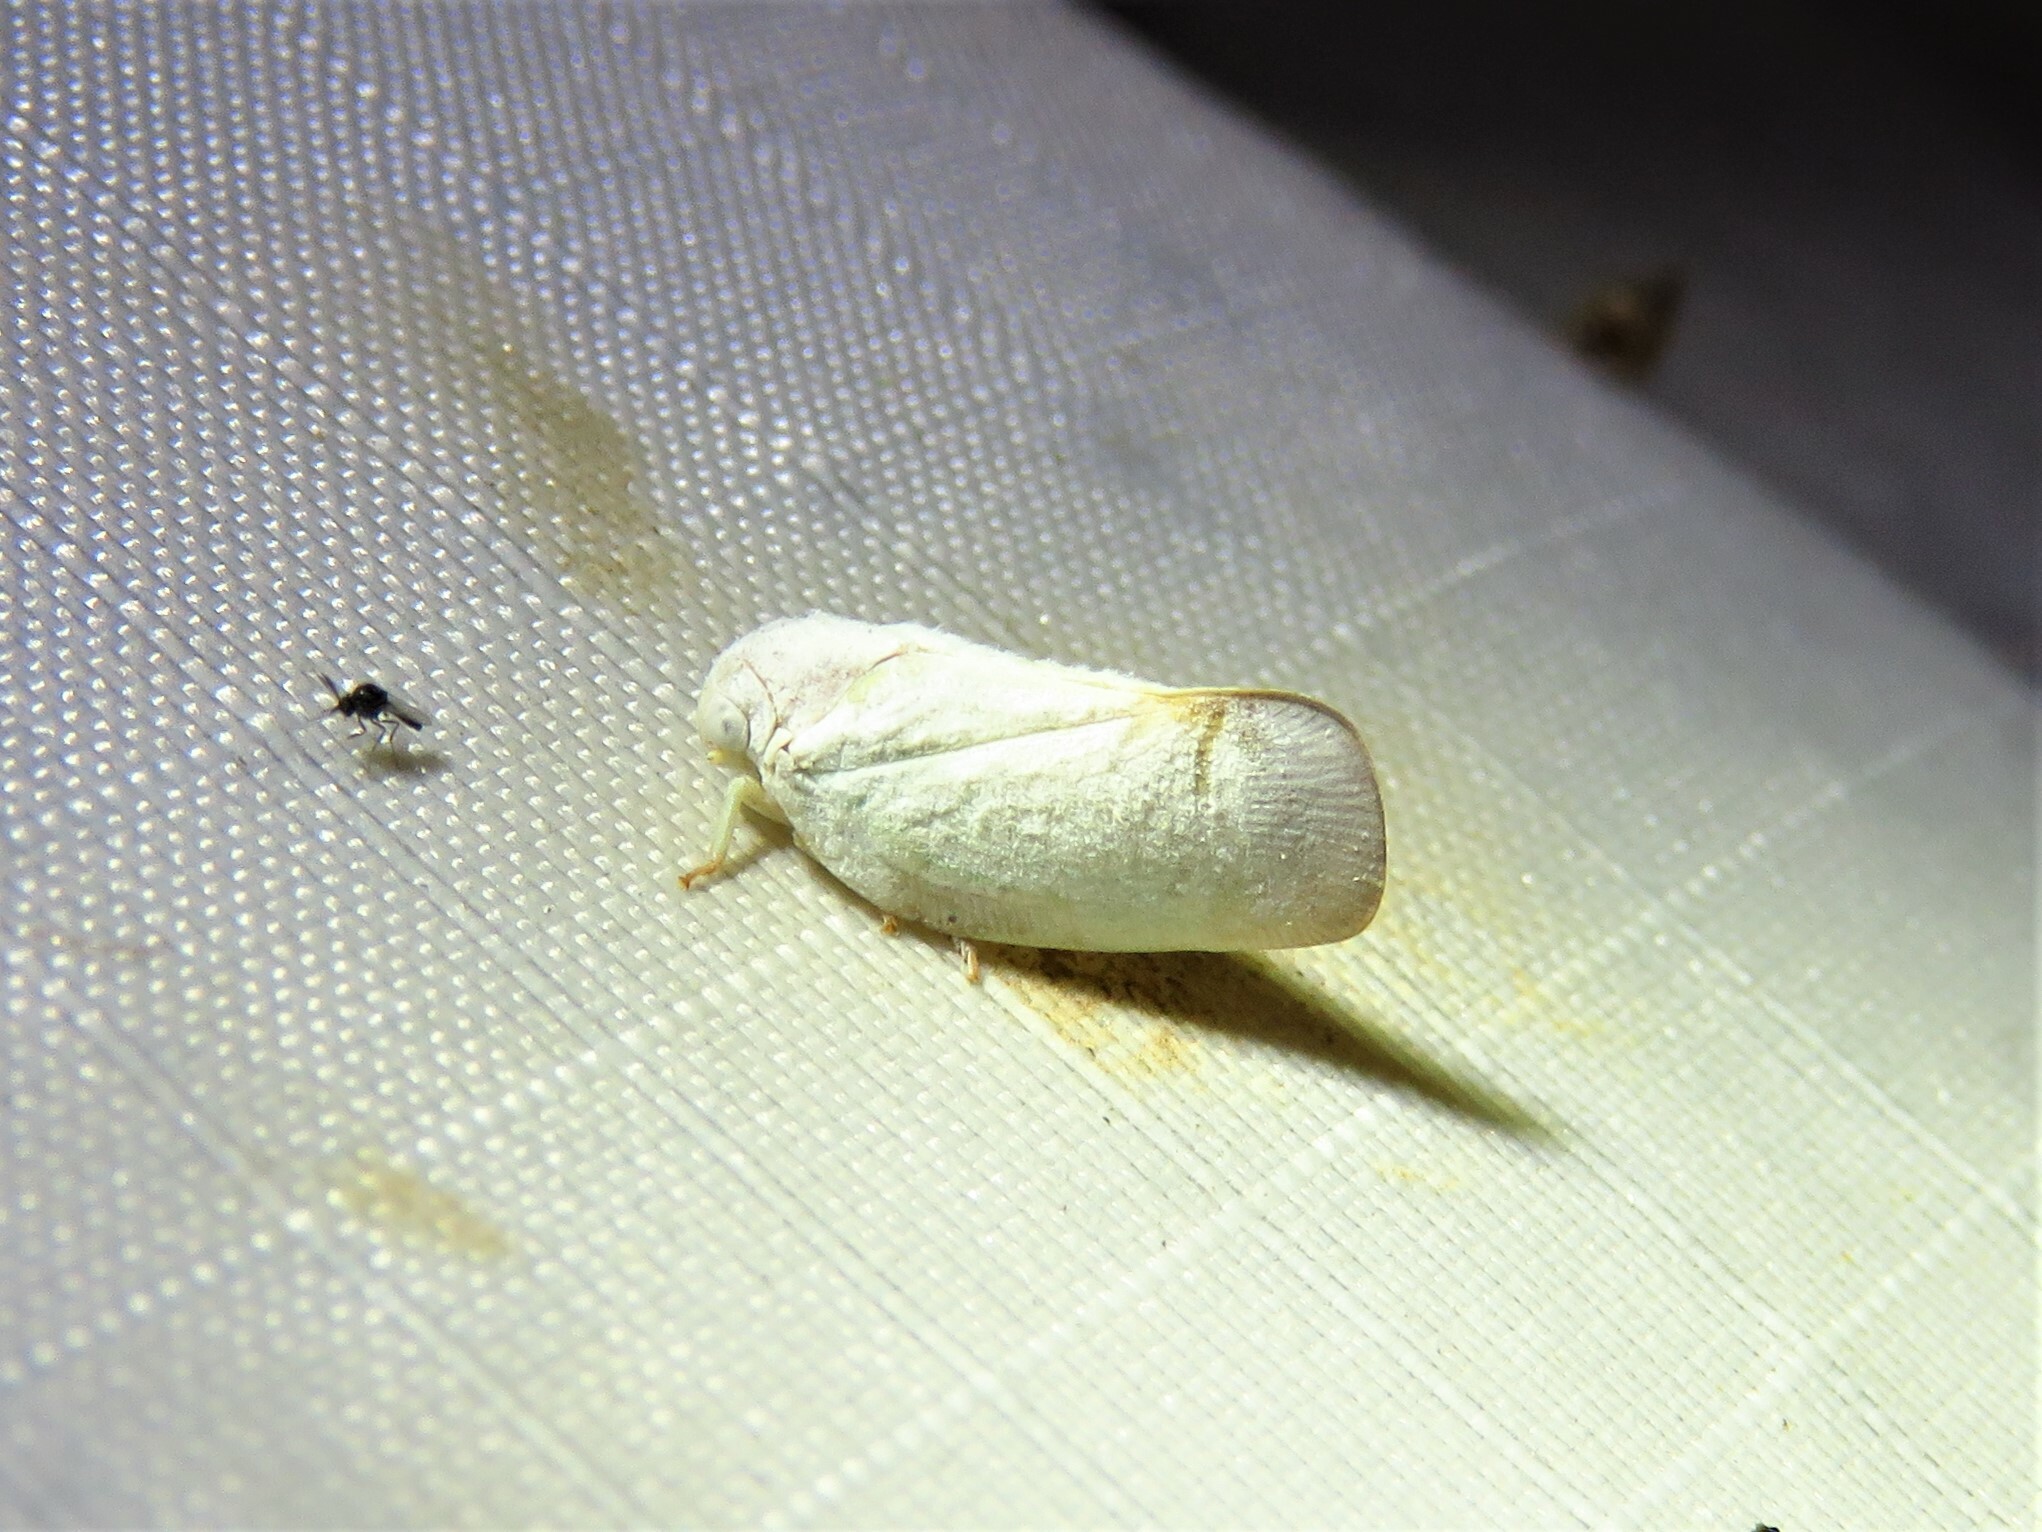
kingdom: Animalia
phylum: Arthropoda
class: Insecta
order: Hemiptera
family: Flatidae
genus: Flatormenis
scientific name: Flatormenis saucia
